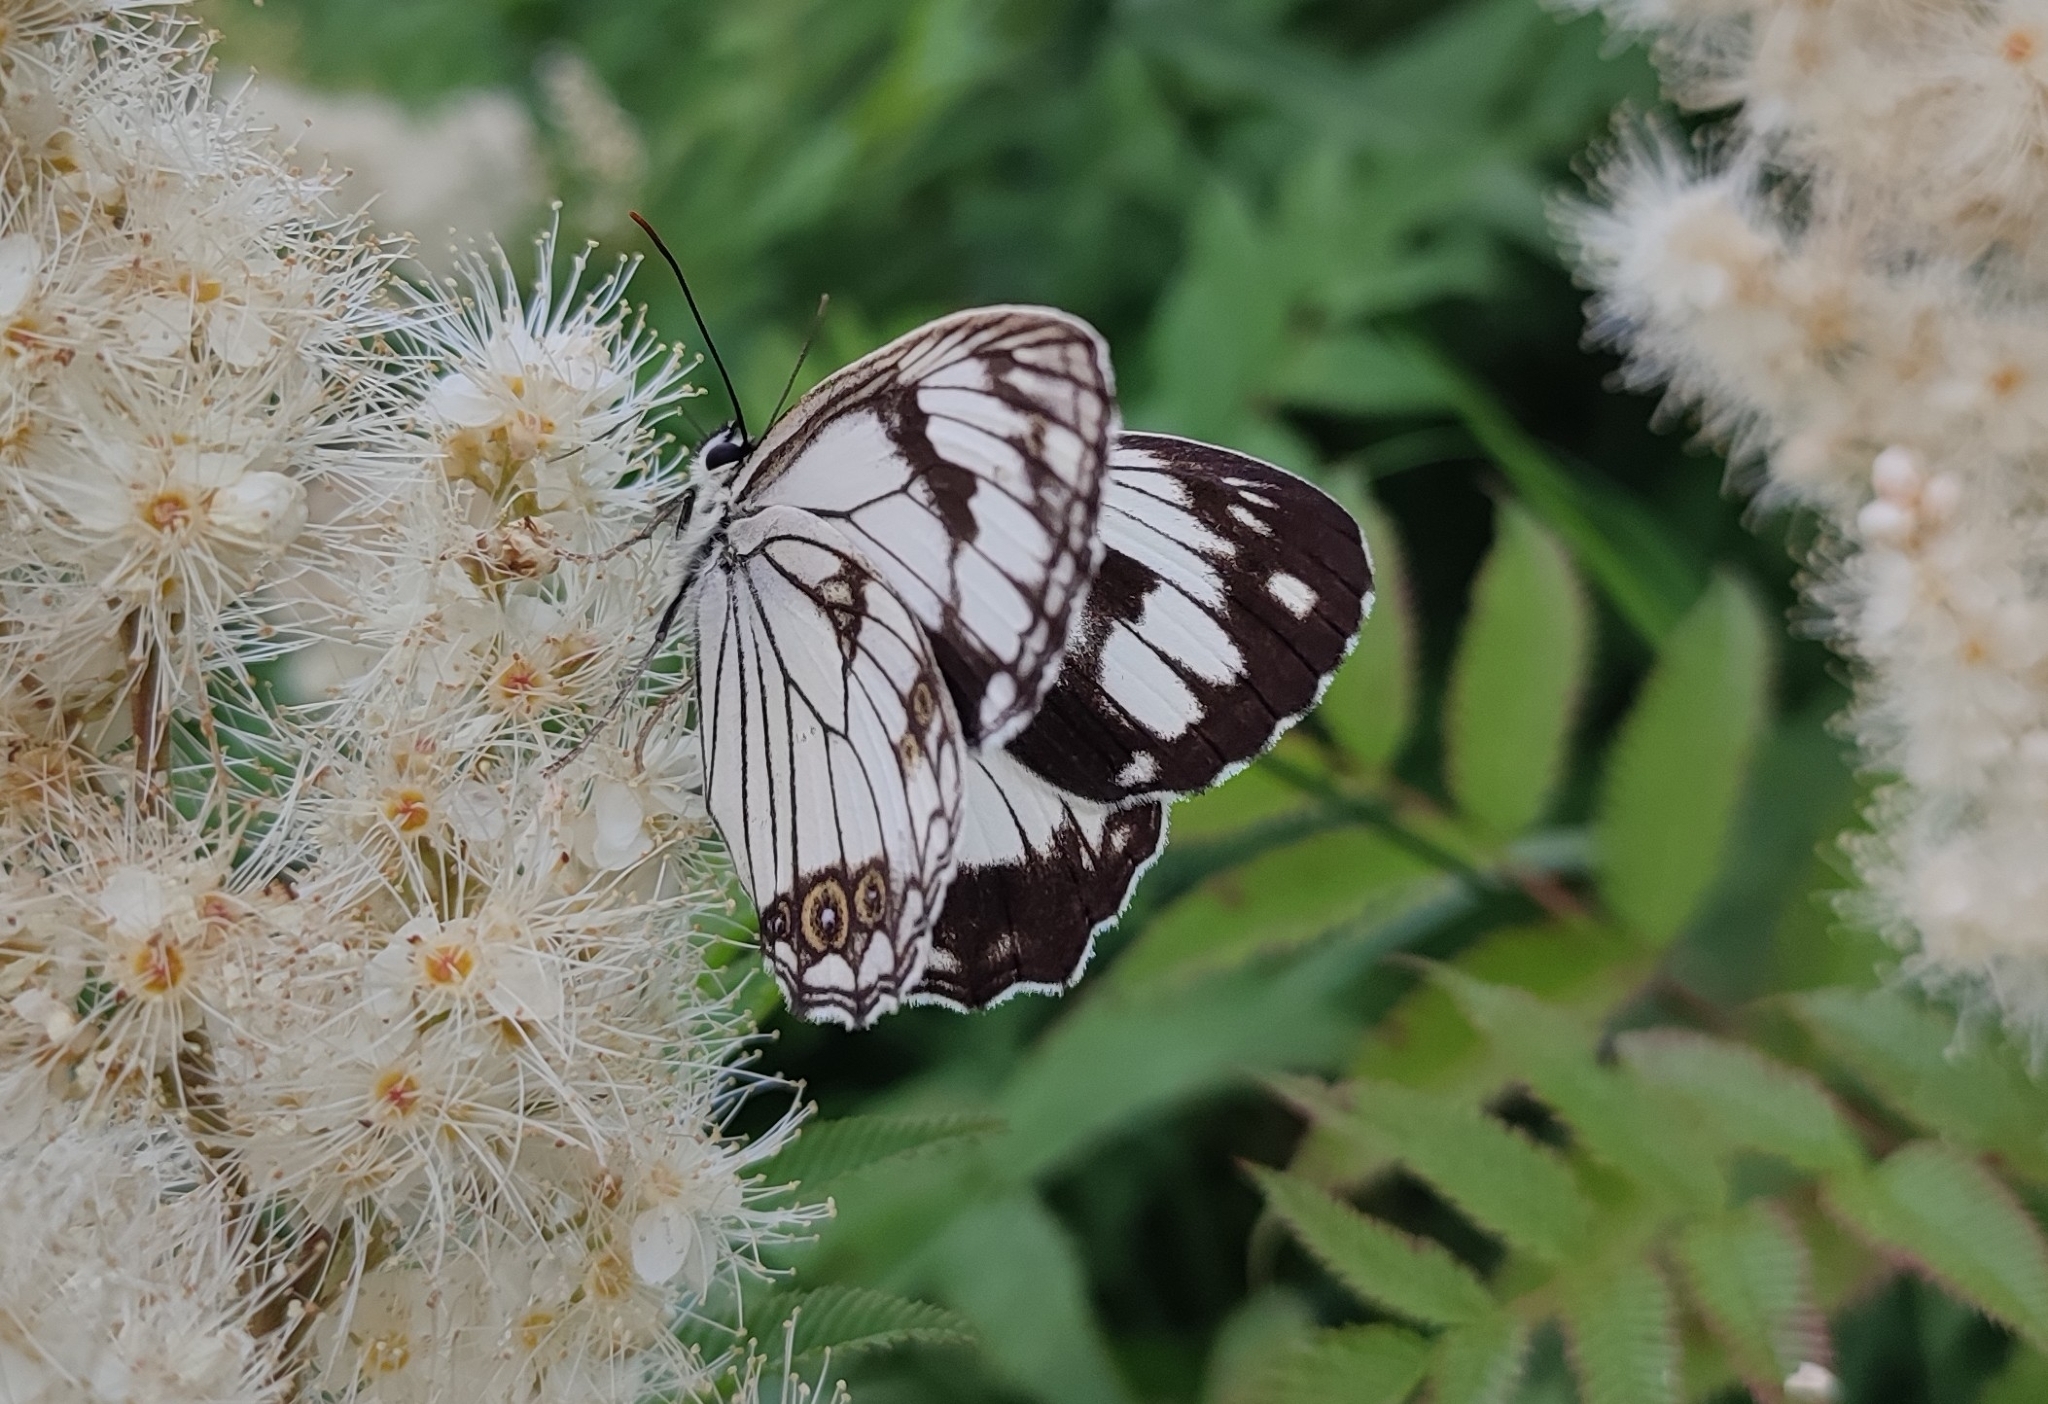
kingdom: Animalia
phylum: Arthropoda
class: Insecta
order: Lepidoptera
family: Nymphalidae
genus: Melanargia
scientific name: Melanargia halimede
